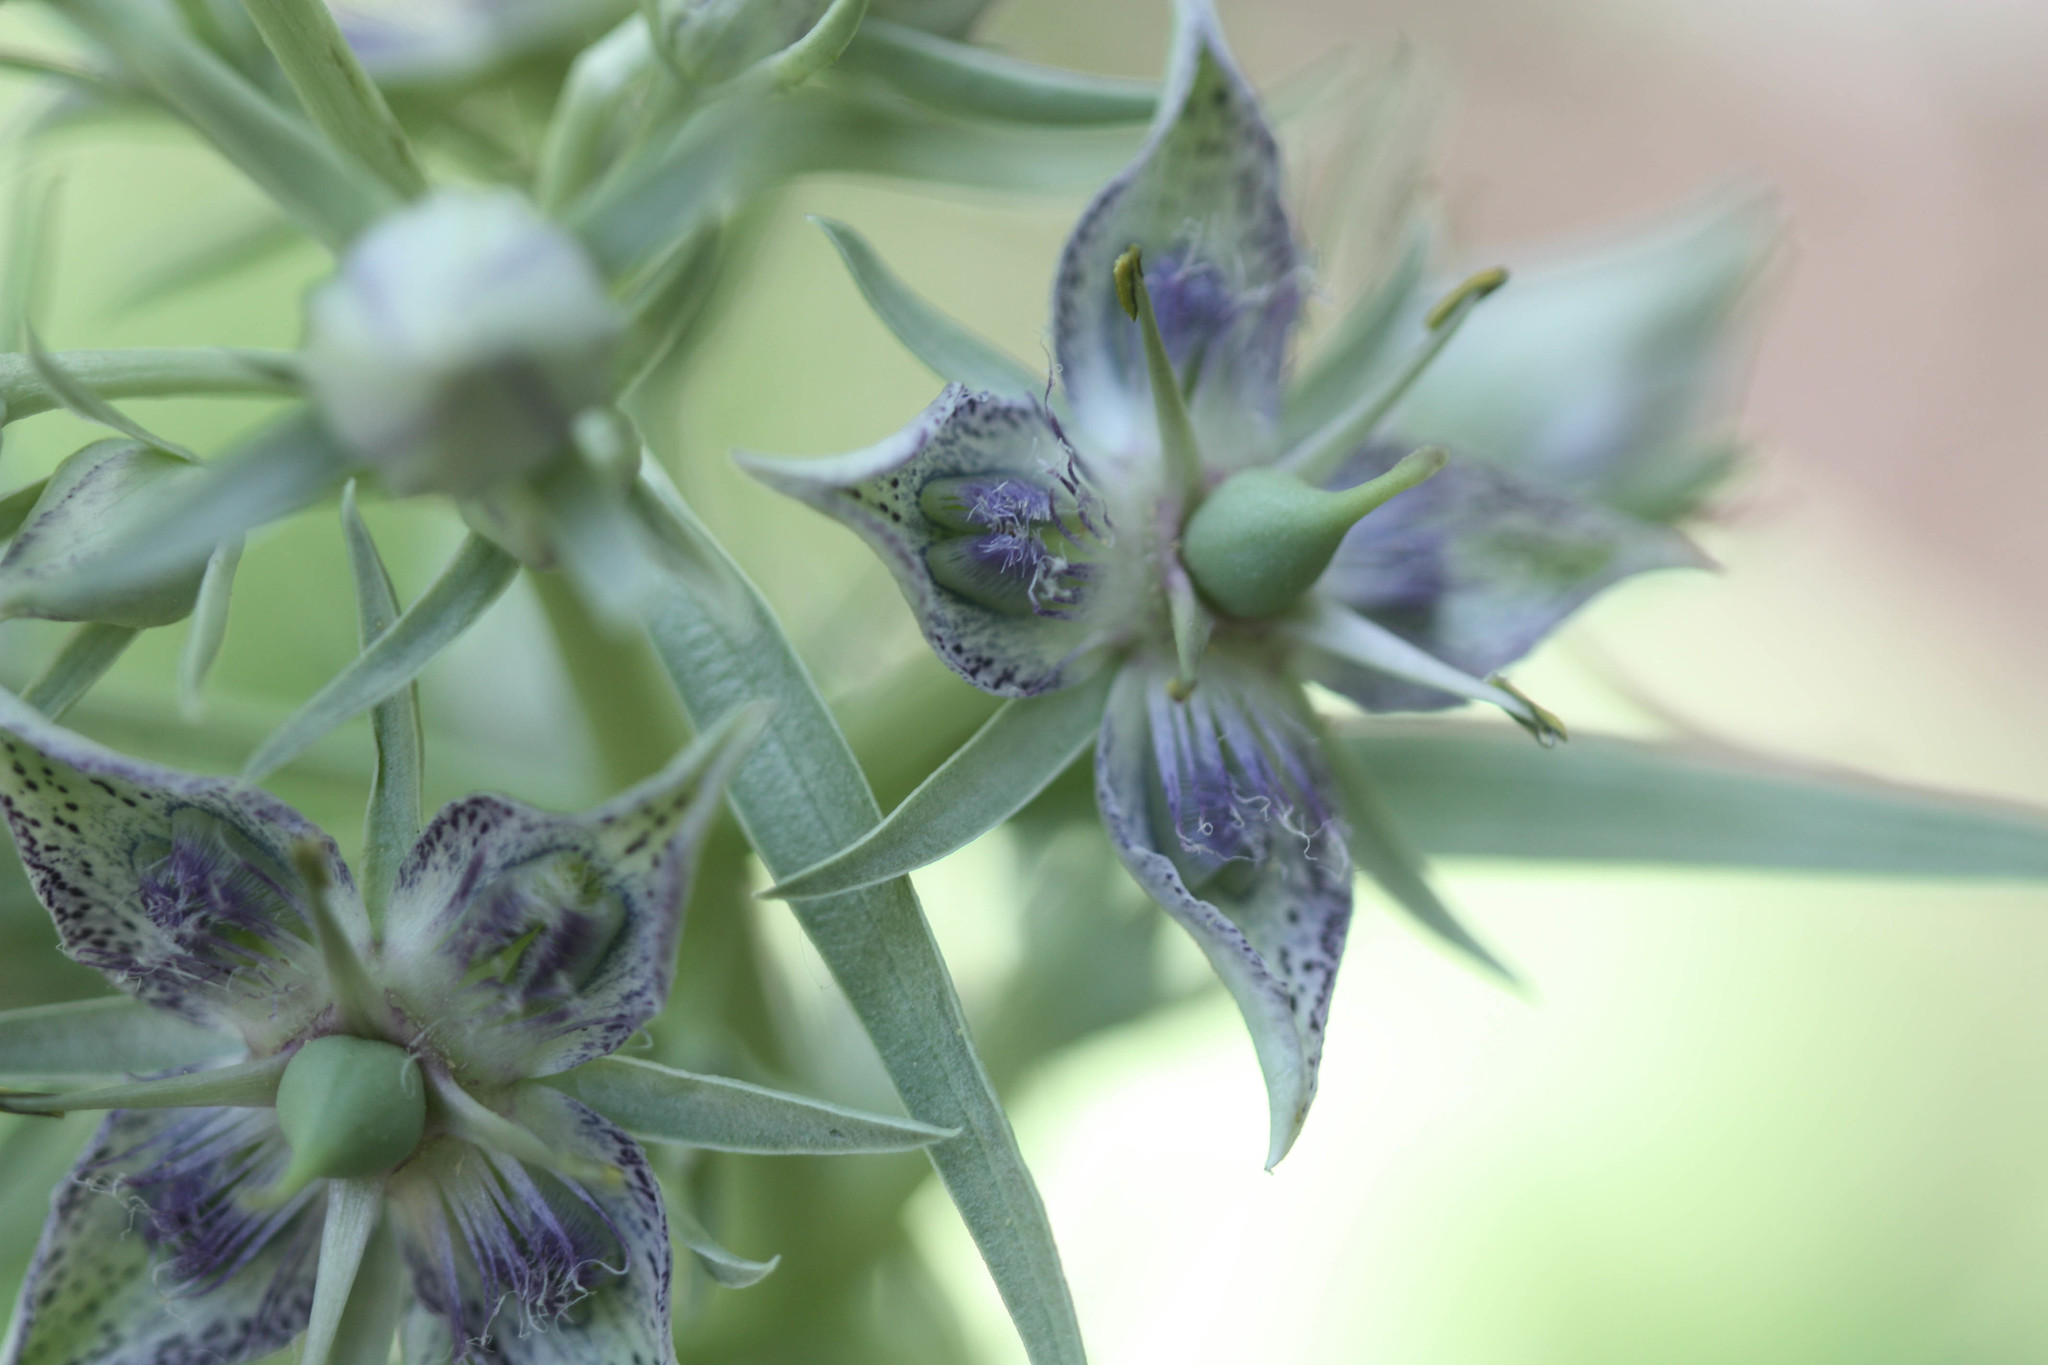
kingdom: Plantae
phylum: Tracheophyta
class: Magnoliopsida
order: Gentianales
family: Gentianaceae
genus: Frasera
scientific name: Frasera speciosa
